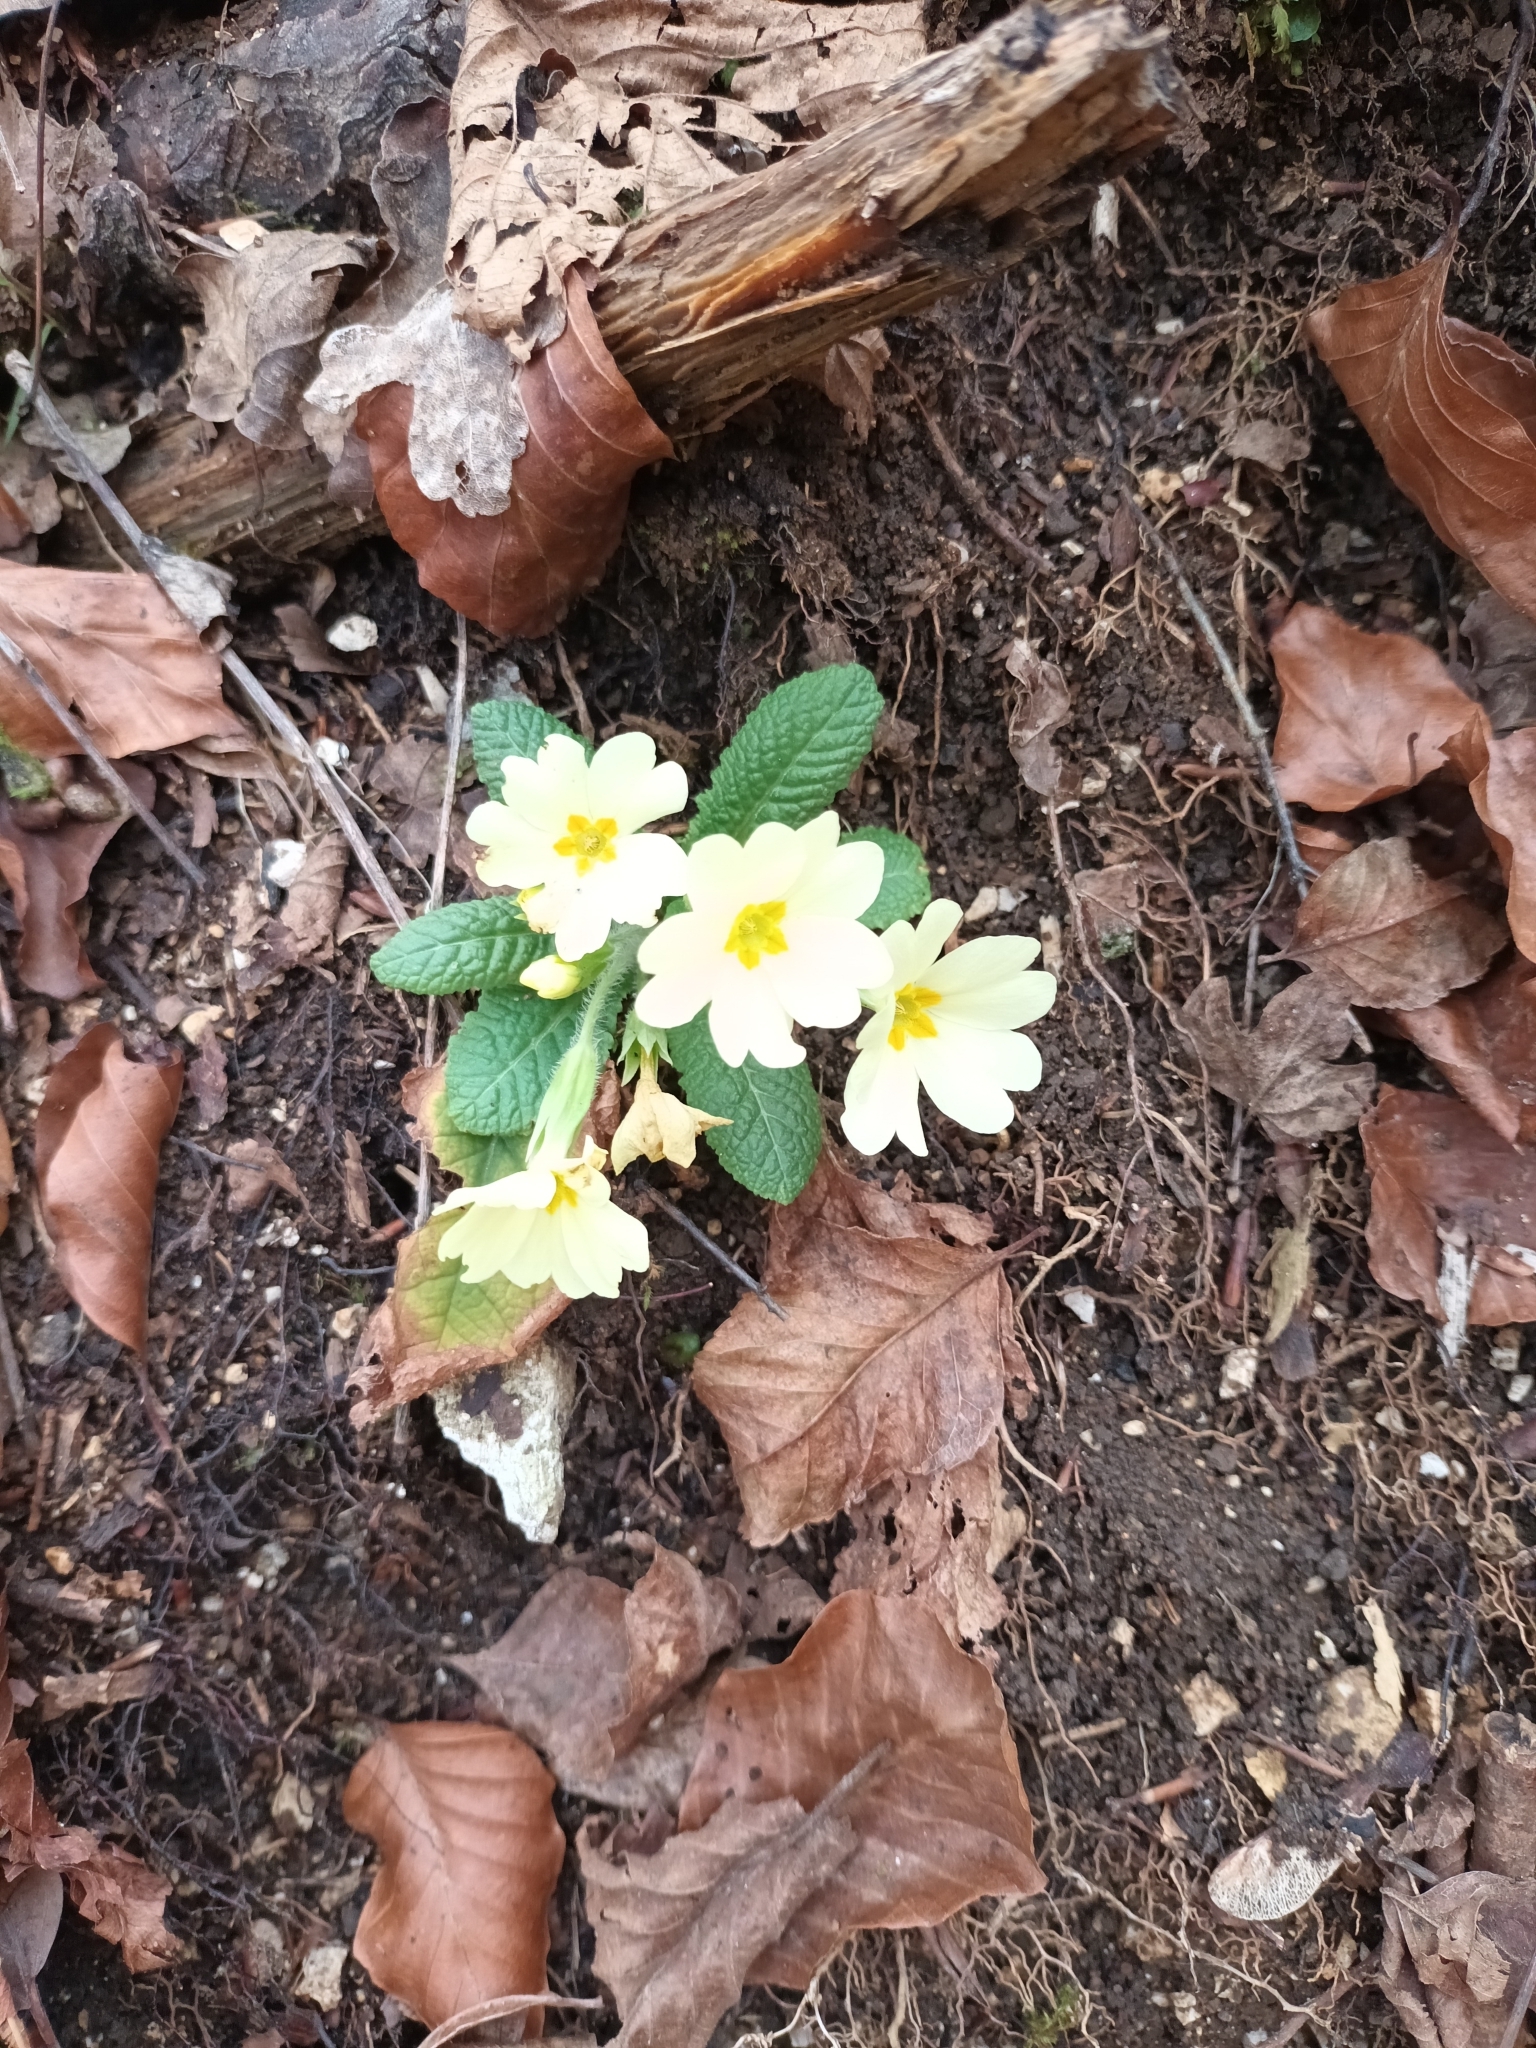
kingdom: Plantae
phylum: Tracheophyta
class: Magnoliopsida
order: Ericales
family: Primulaceae
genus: Primula
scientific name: Primula vulgaris
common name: Primrose
